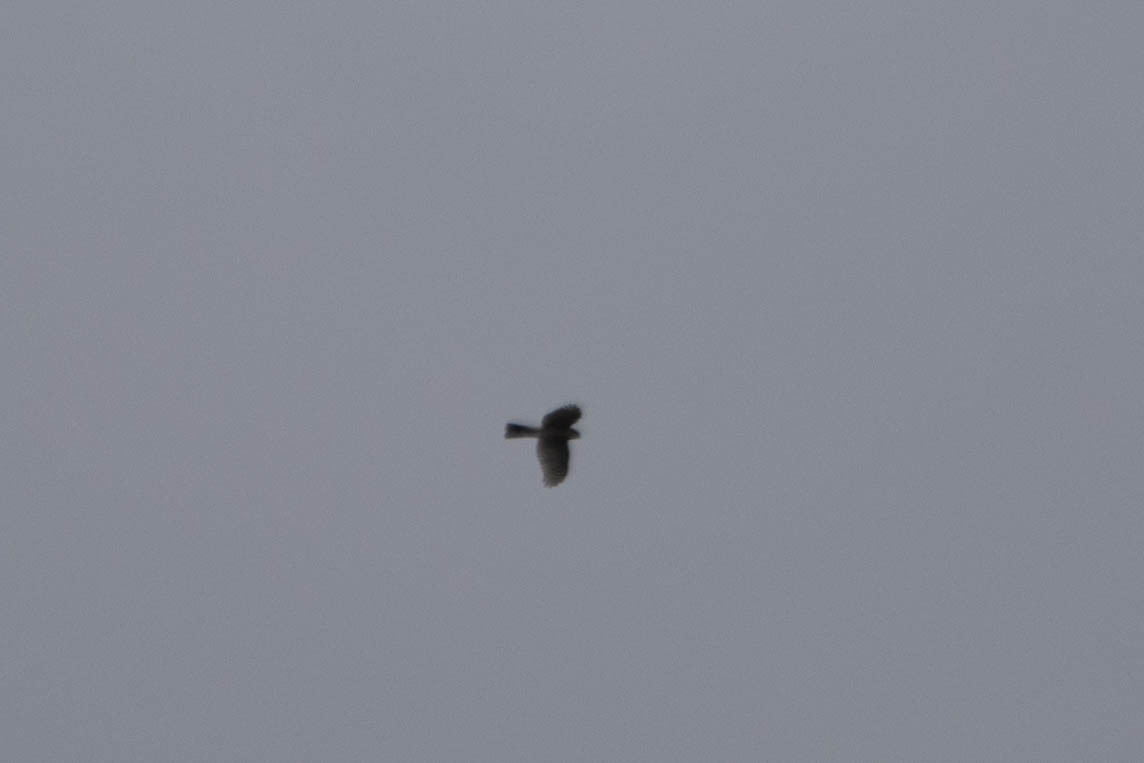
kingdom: Animalia
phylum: Chordata
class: Aves
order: Accipitriformes
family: Accipitridae
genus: Accipiter
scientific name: Accipiter striatus
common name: Sharp-shinned hawk
